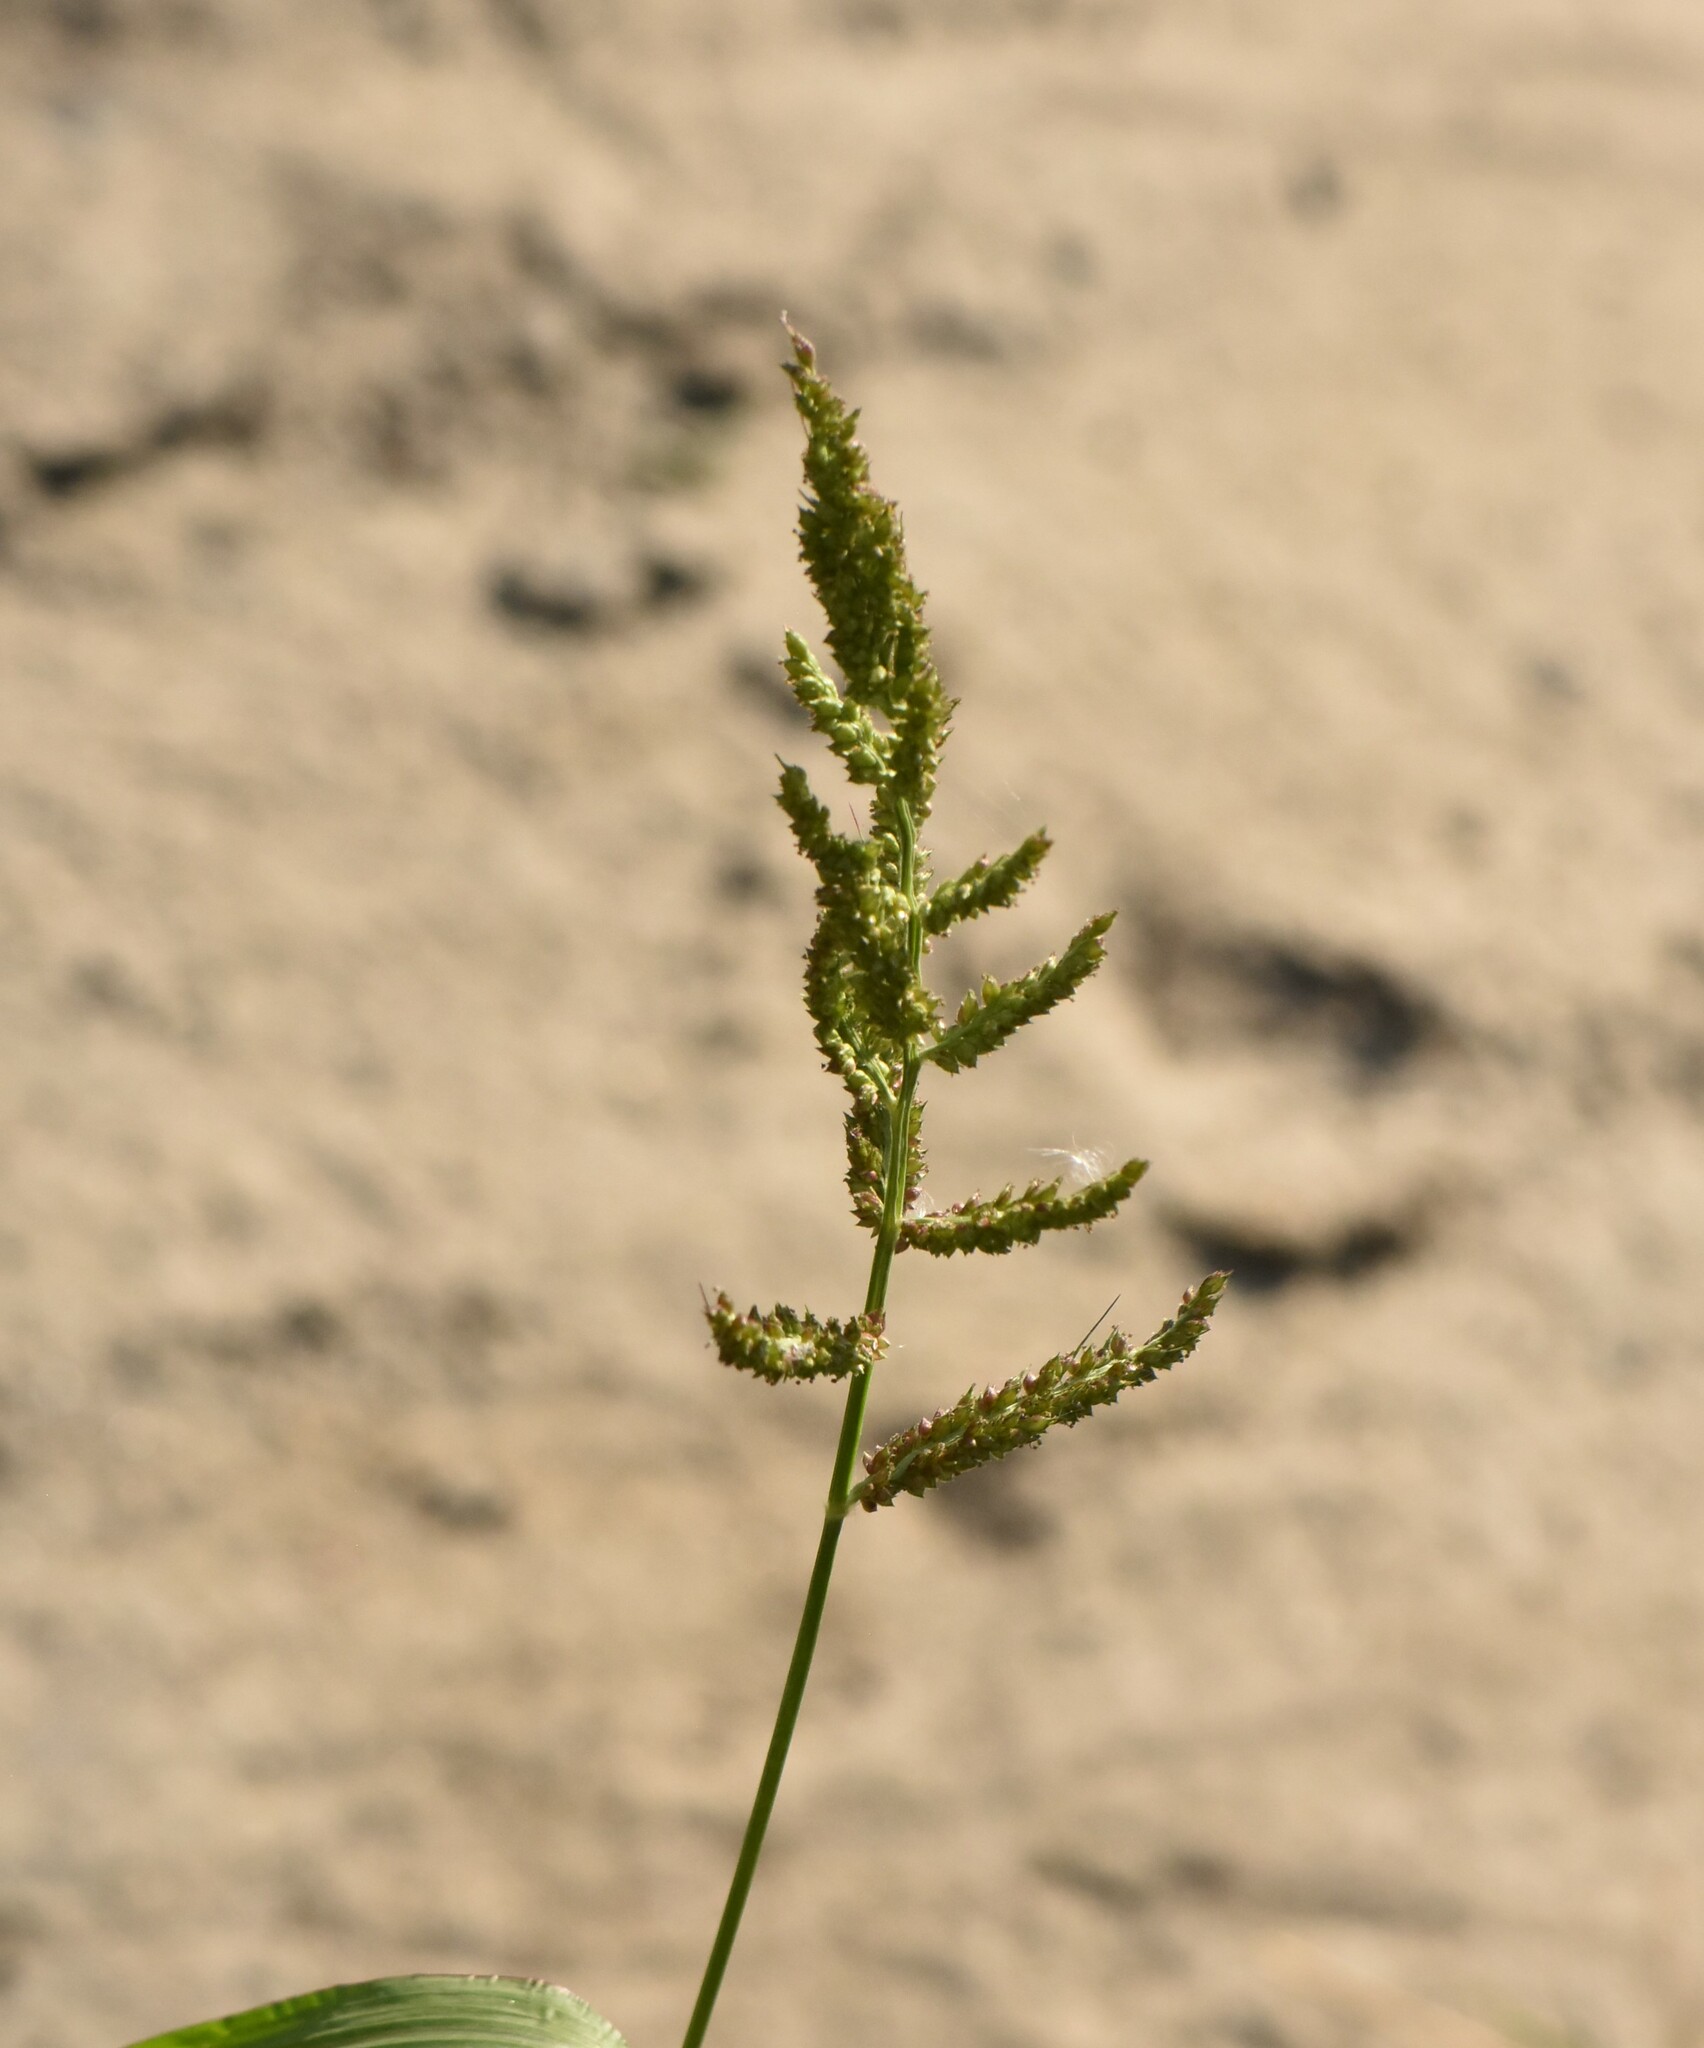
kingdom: Plantae
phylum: Tracheophyta
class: Liliopsida
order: Poales
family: Poaceae
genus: Echinochloa
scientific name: Echinochloa crus-galli
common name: Cockspur
